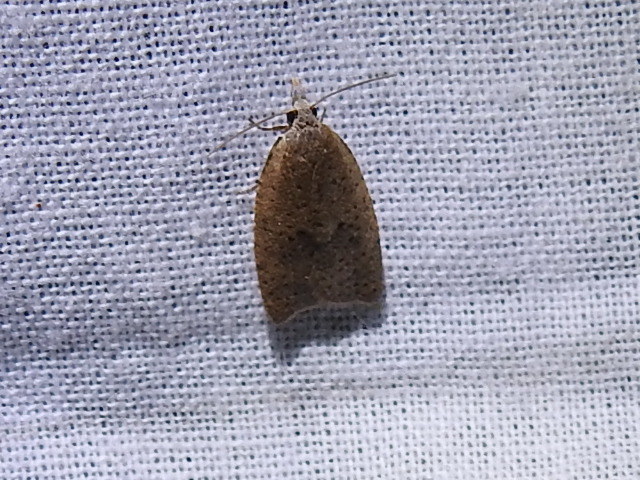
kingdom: Animalia
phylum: Arthropoda
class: Insecta
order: Lepidoptera
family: Tortricidae
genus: Sparganothoides
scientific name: Sparganothoides lentiginosana
